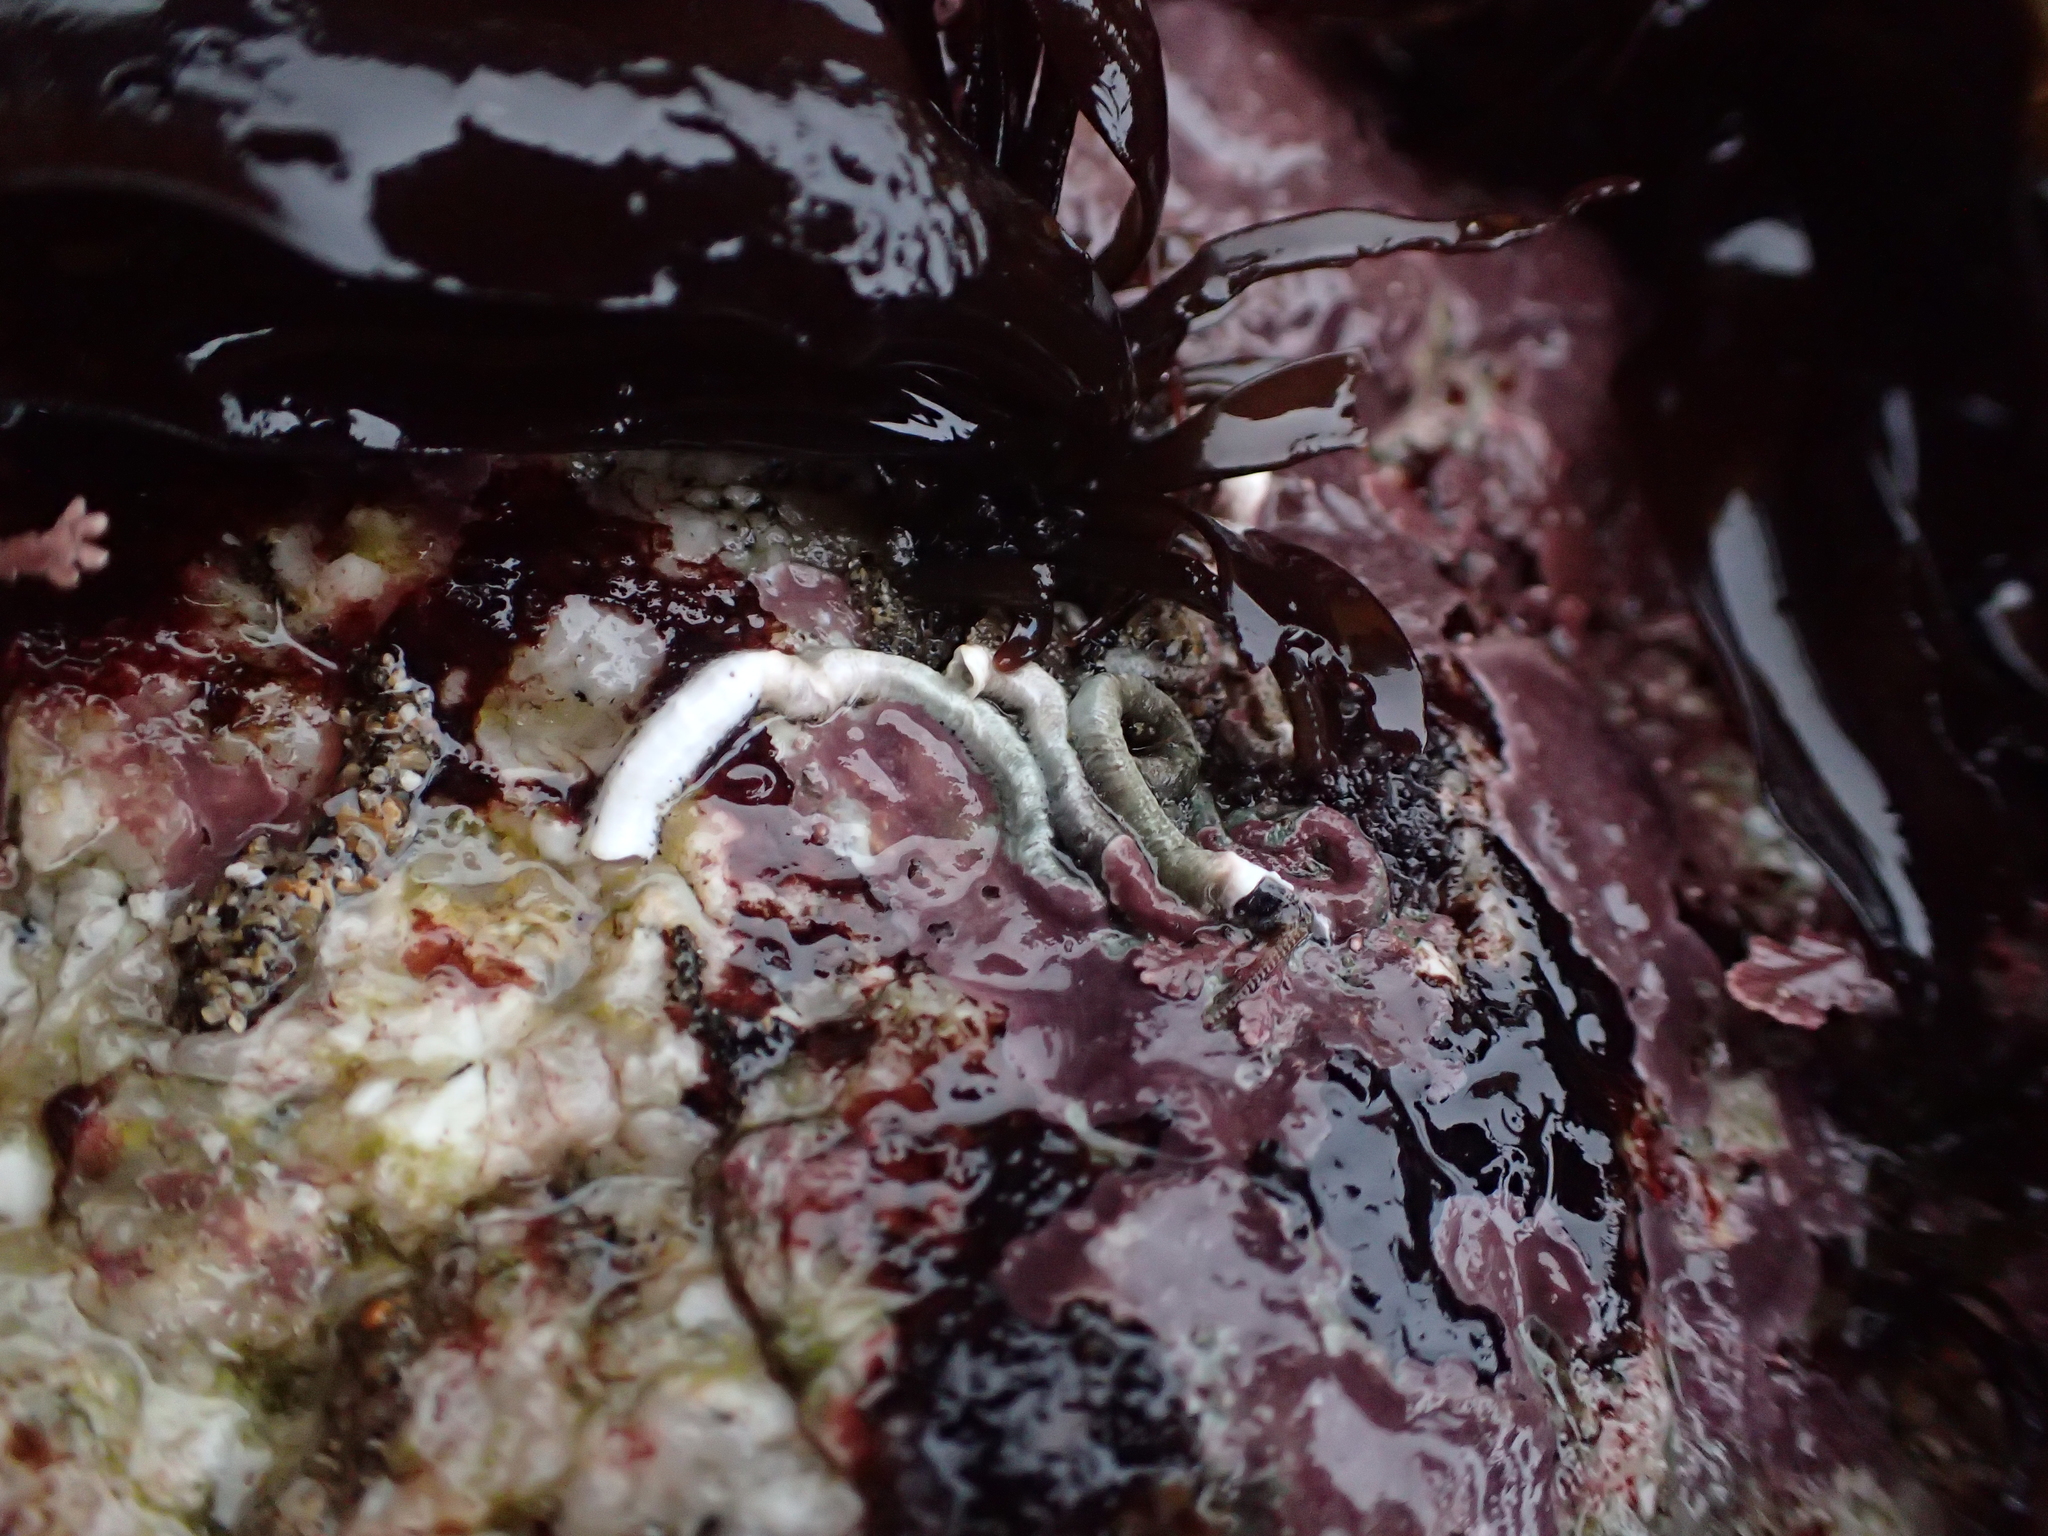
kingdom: Animalia
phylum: Annelida
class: Polychaeta
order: Sabellida
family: Serpulidae
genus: Serpula
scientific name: Serpula columbiana
